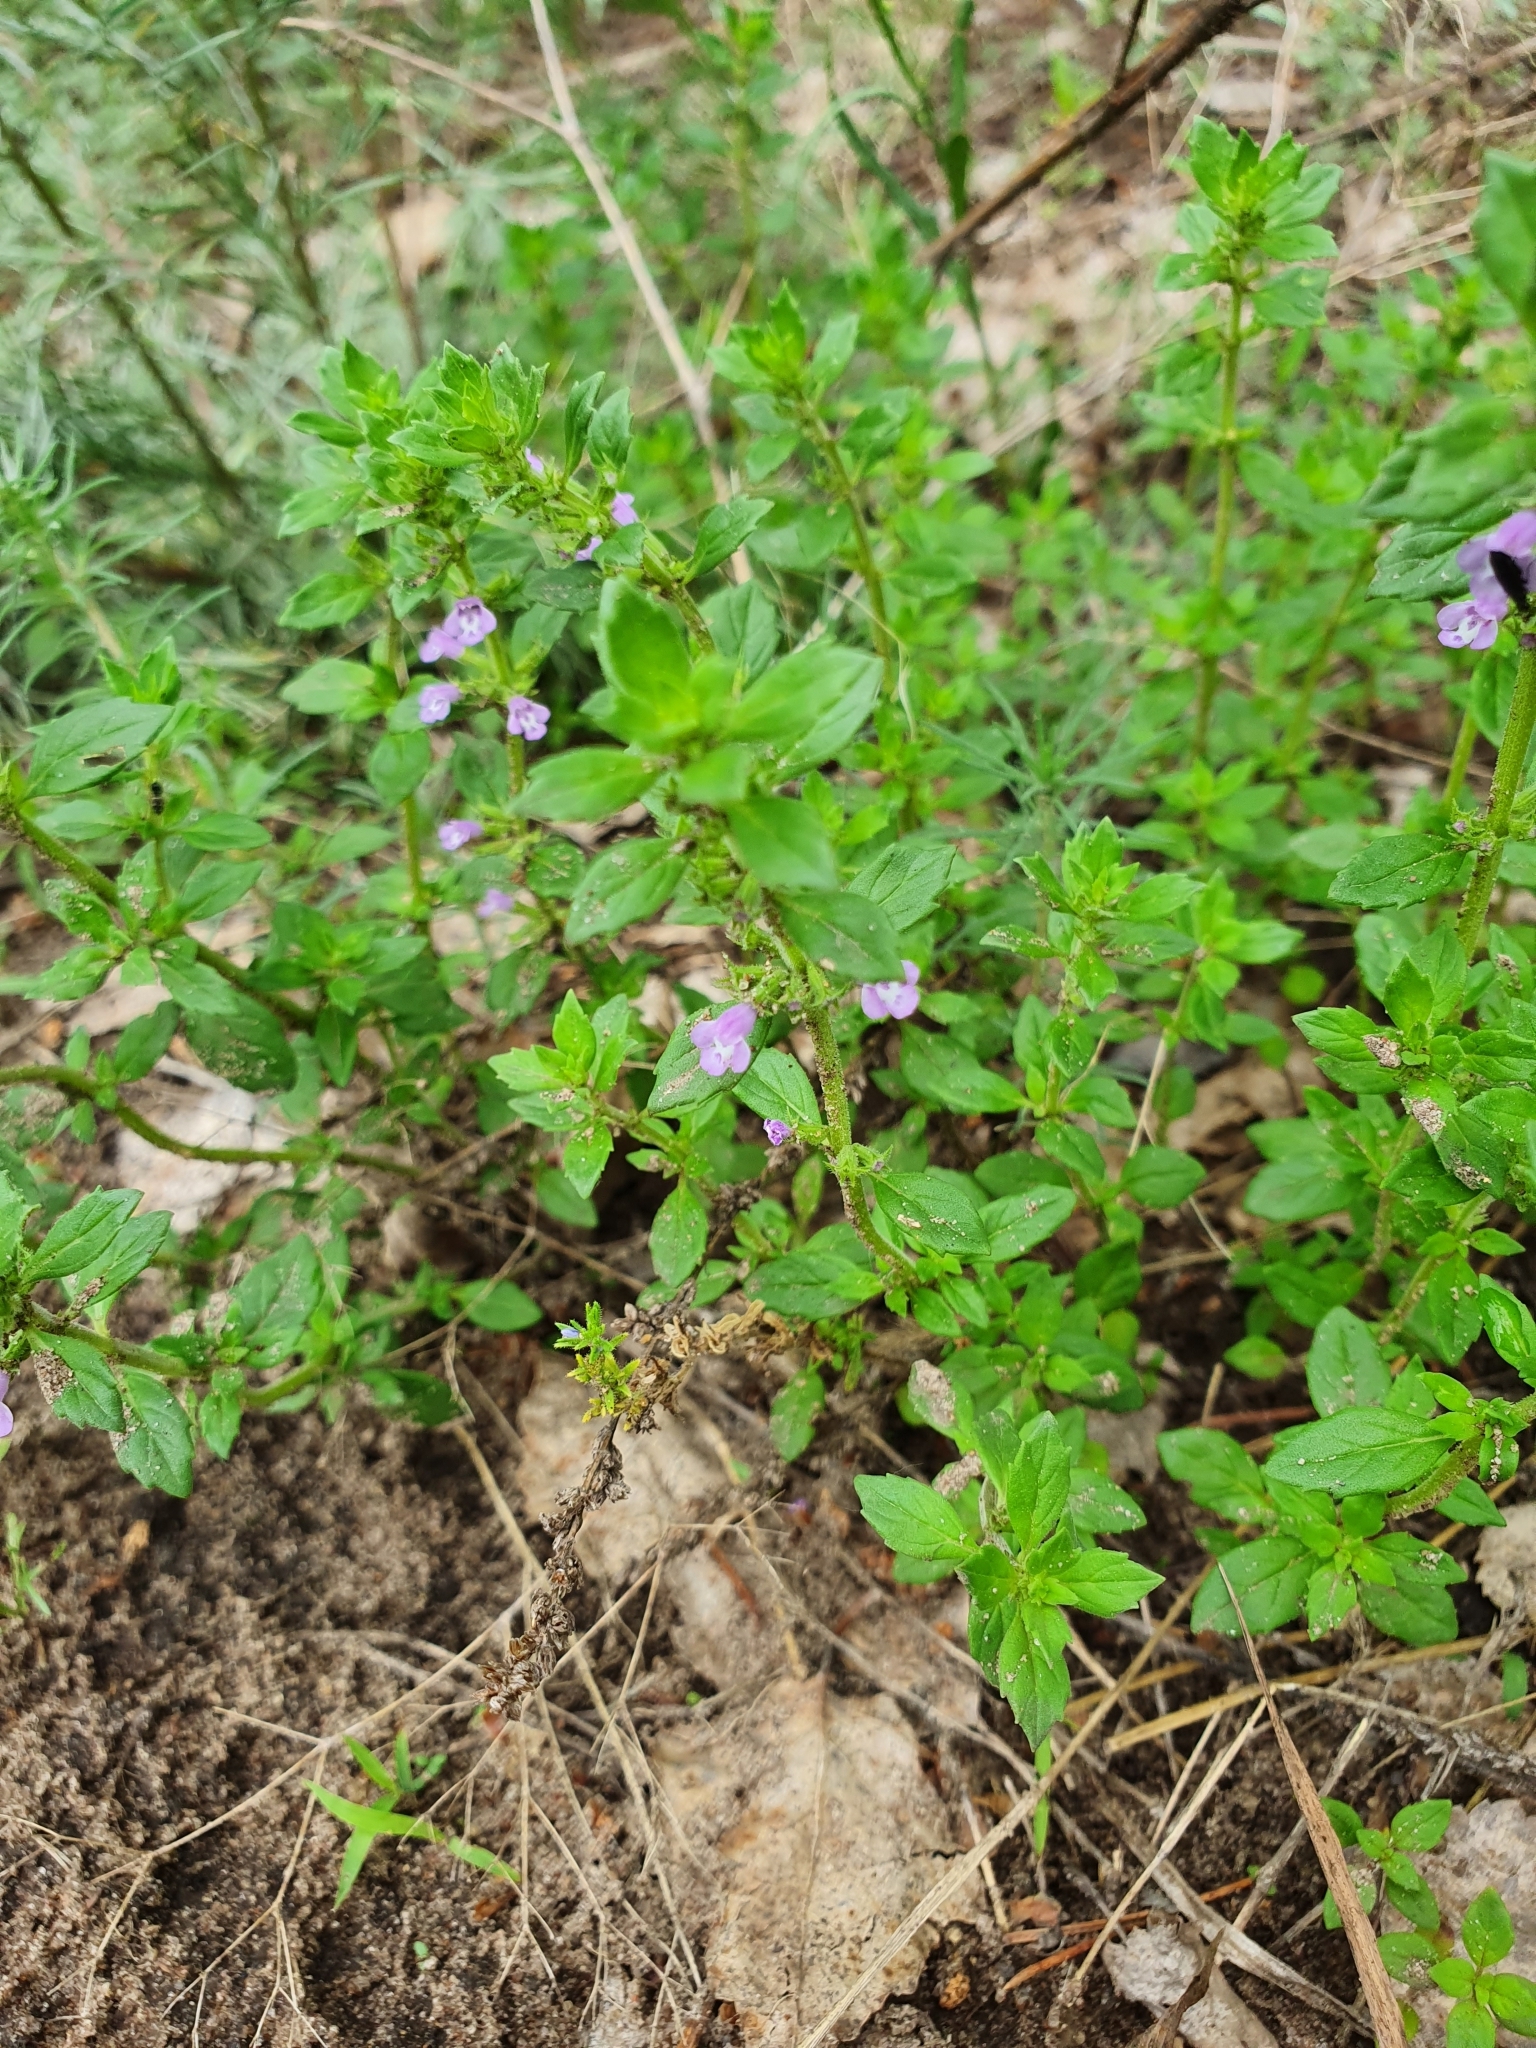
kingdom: Plantae
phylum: Tracheophyta
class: Magnoliopsida
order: Lamiales
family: Lamiaceae
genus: Clinopodium
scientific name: Clinopodium acinos
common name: Basil thyme
